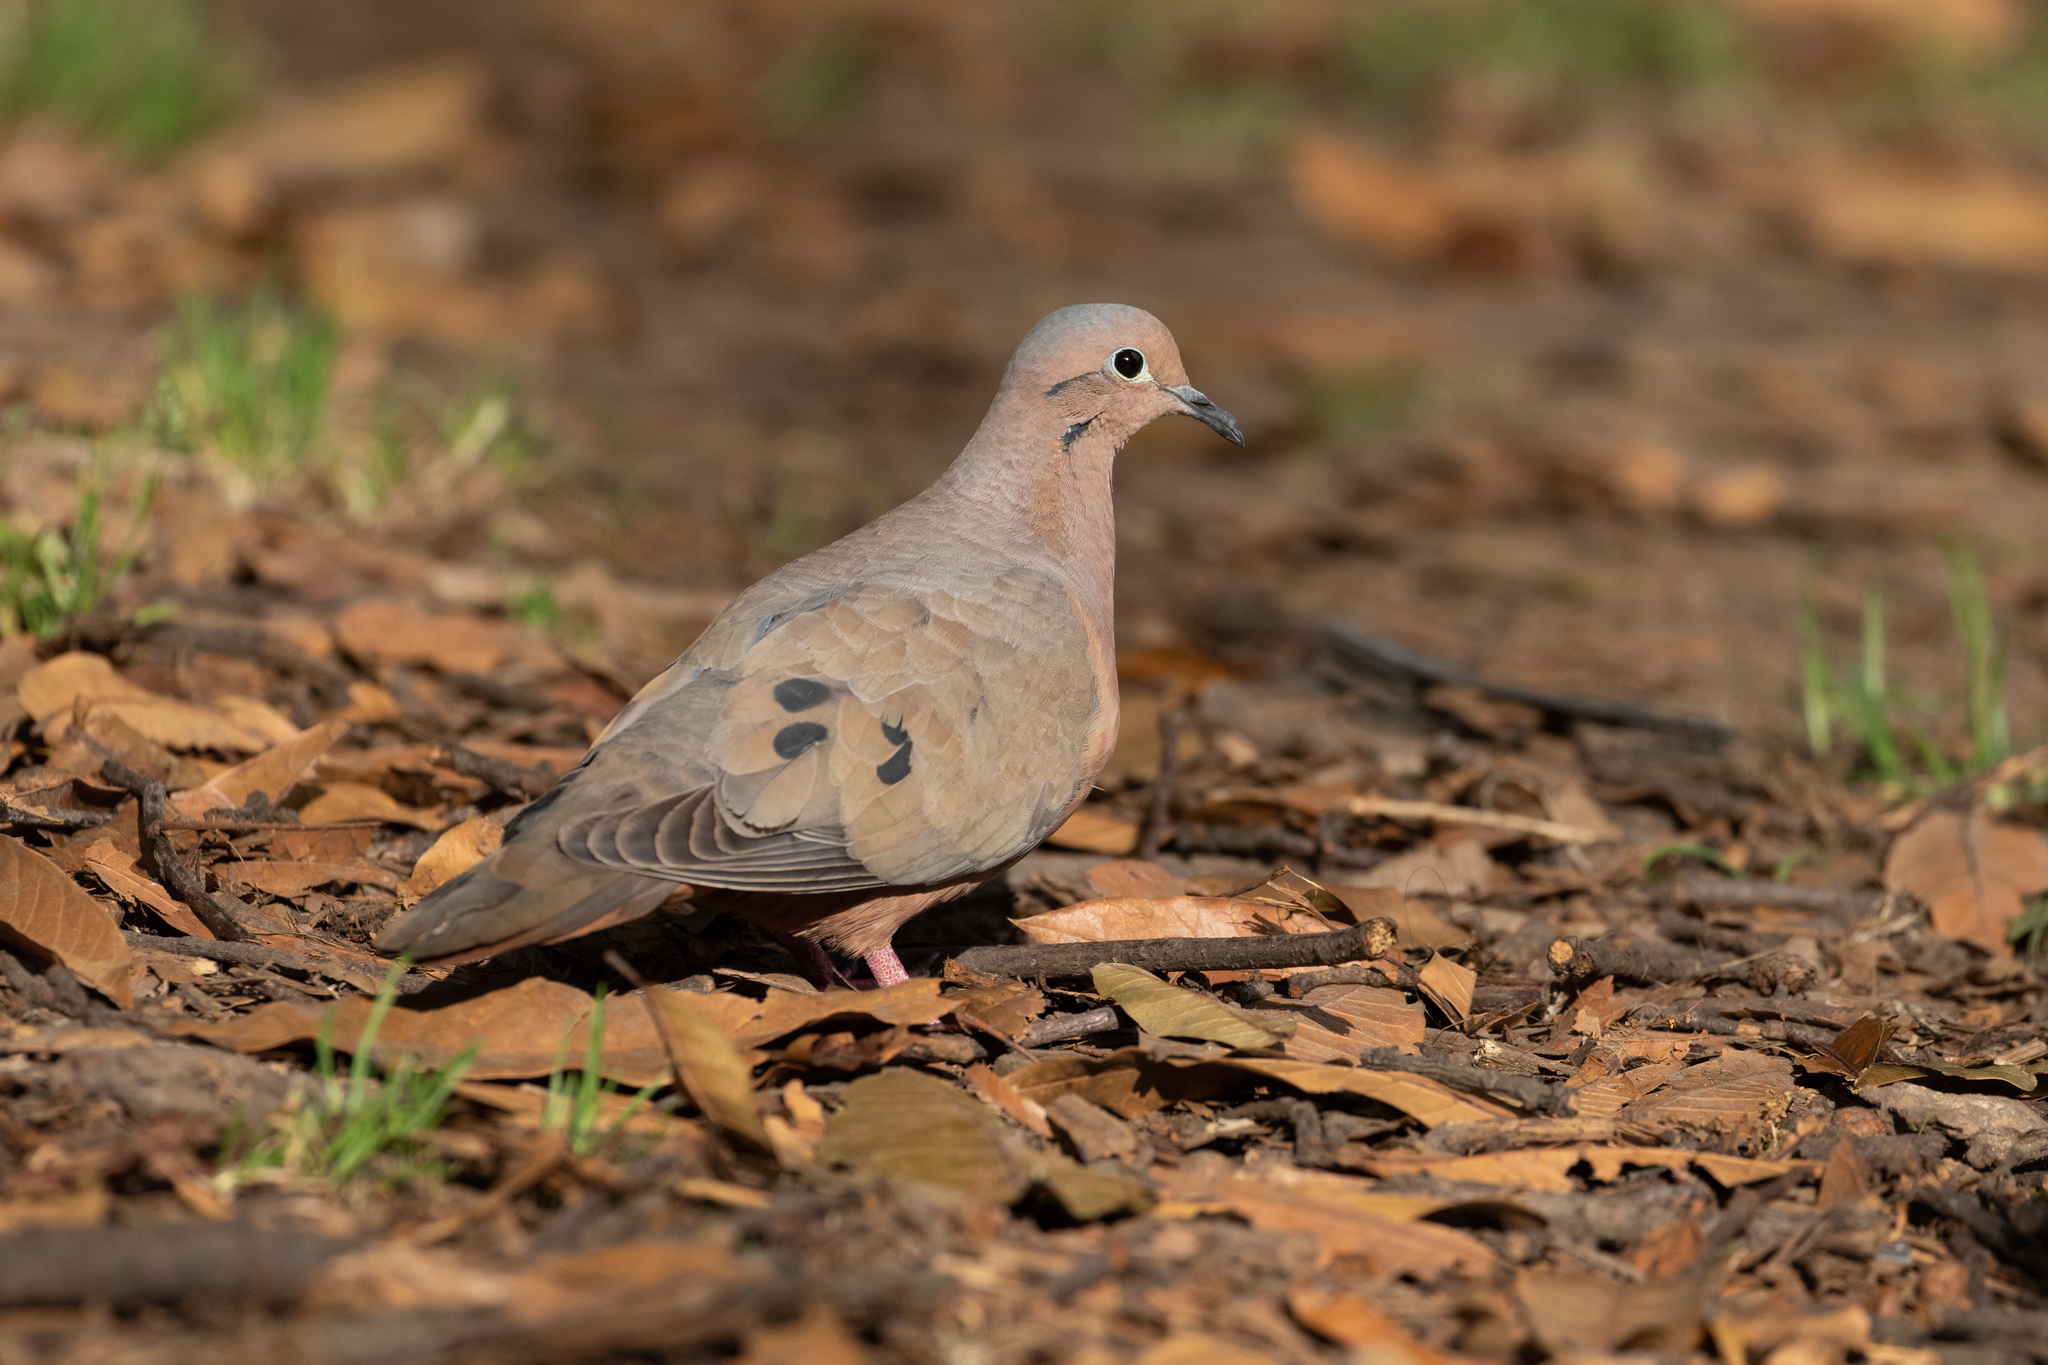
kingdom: Animalia
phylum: Chordata
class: Aves
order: Columbiformes
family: Columbidae
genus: Zenaida
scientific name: Zenaida auriculata
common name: Eared dove
